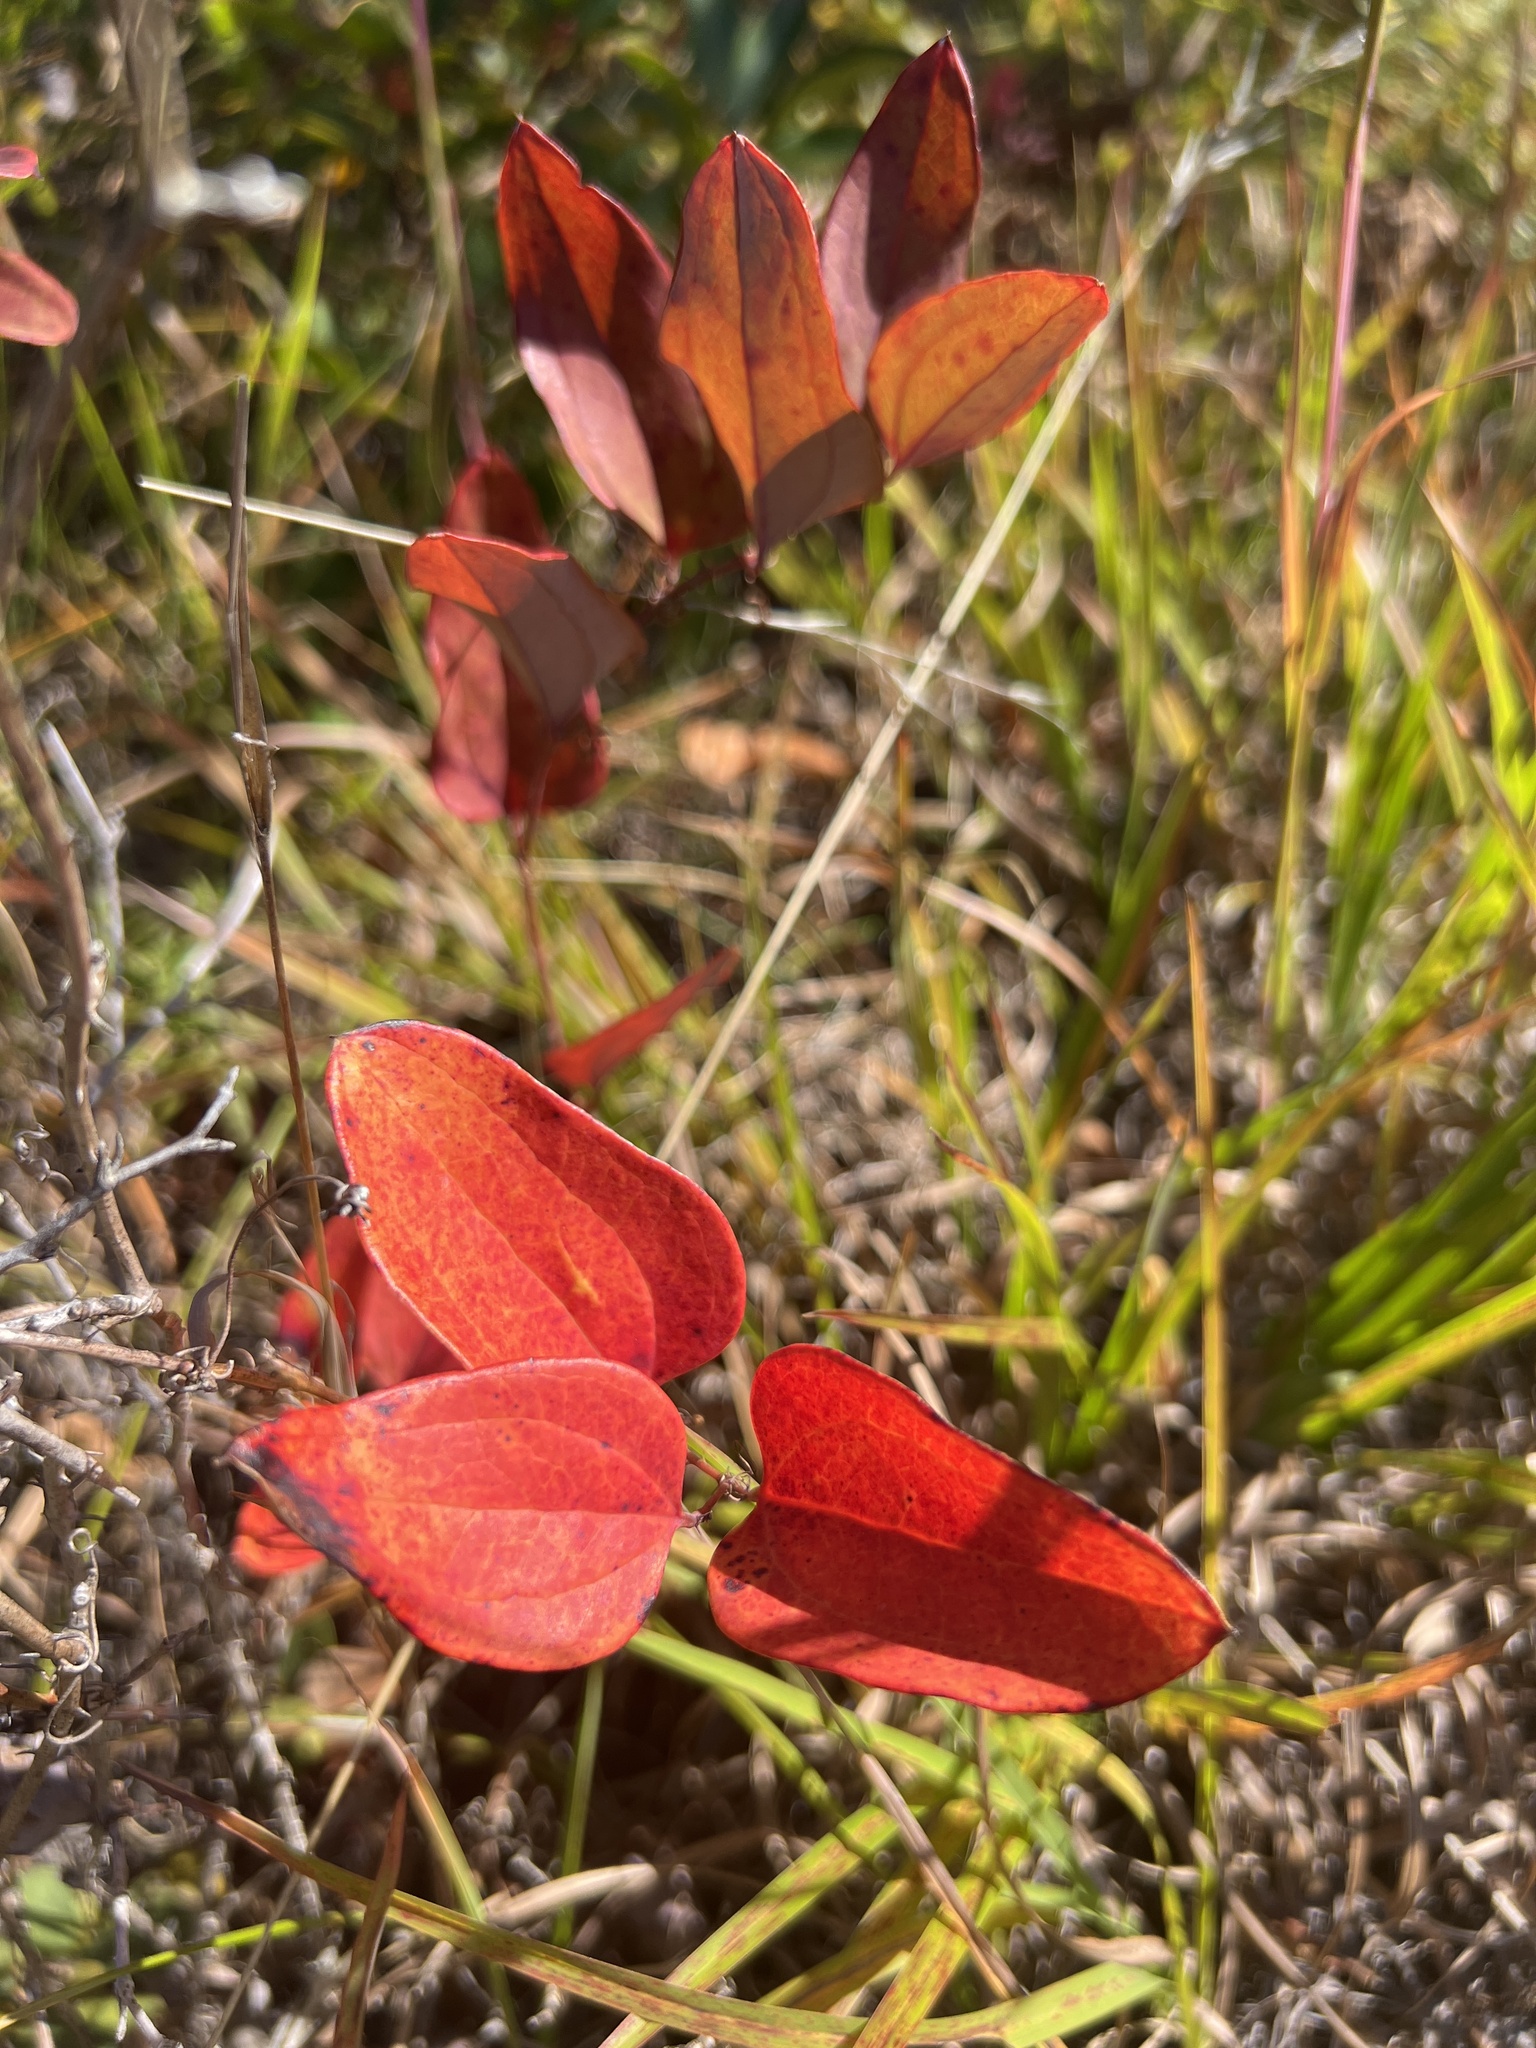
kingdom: Plantae
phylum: Tracheophyta
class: Liliopsida
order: Liliales
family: Smilacaceae
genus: Smilax
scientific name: Smilax glauca
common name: Cat greenbrier
